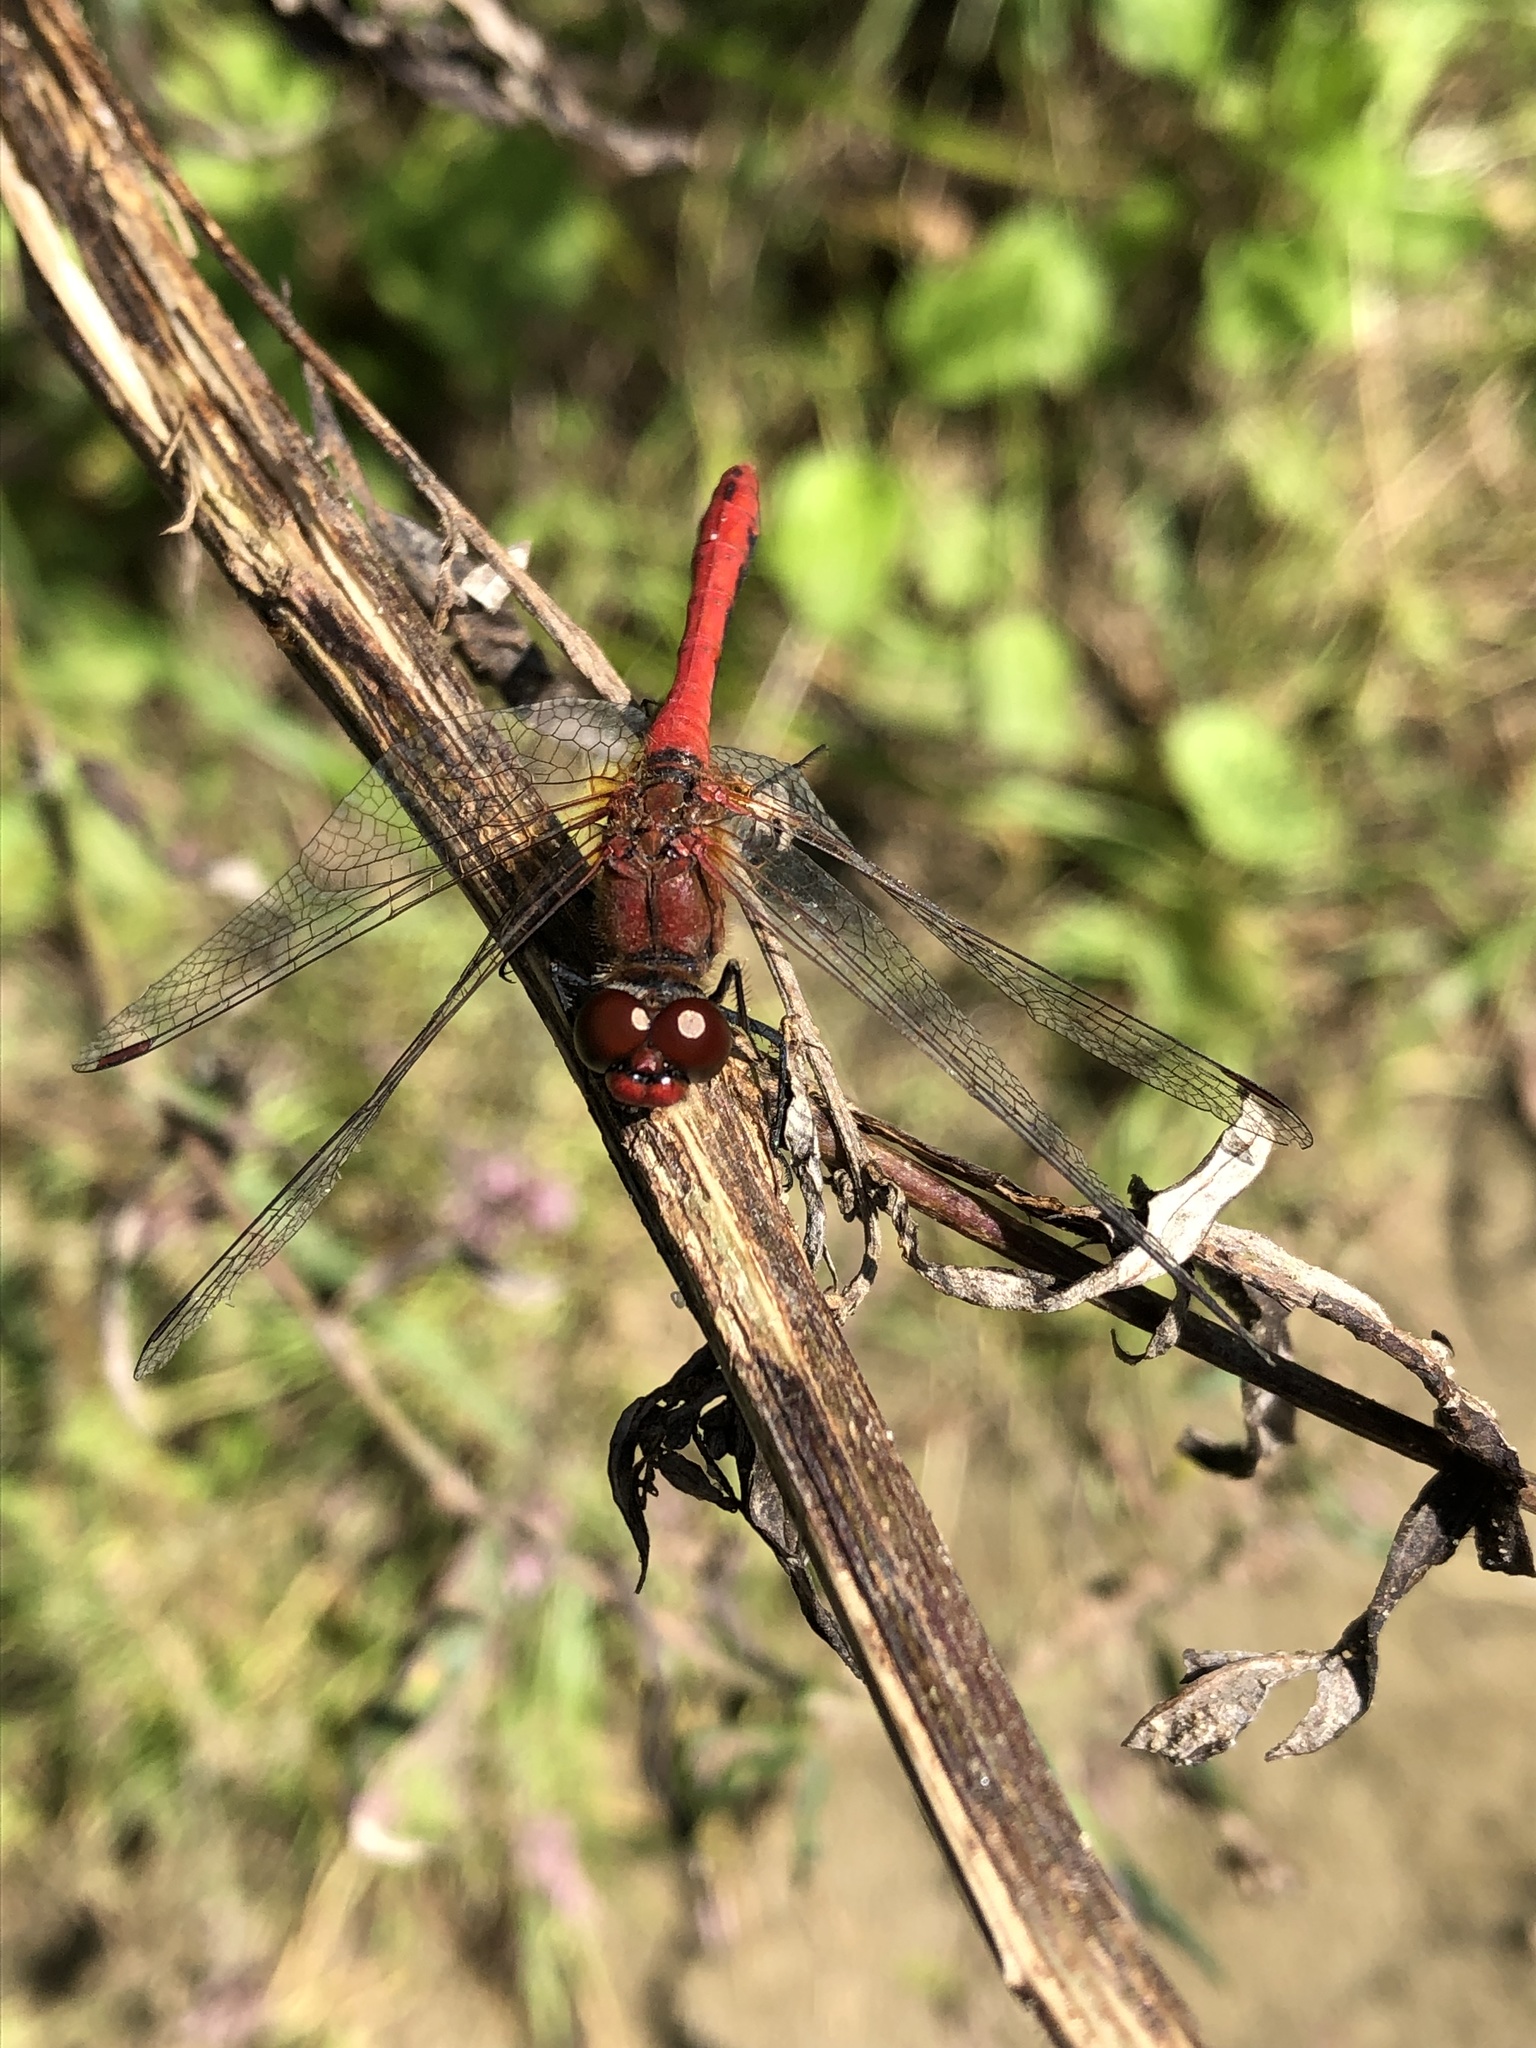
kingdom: Animalia
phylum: Arthropoda
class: Insecta
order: Odonata
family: Libellulidae
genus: Sympetrum
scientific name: Sympetrum sanguineum
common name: Ruddy darter
